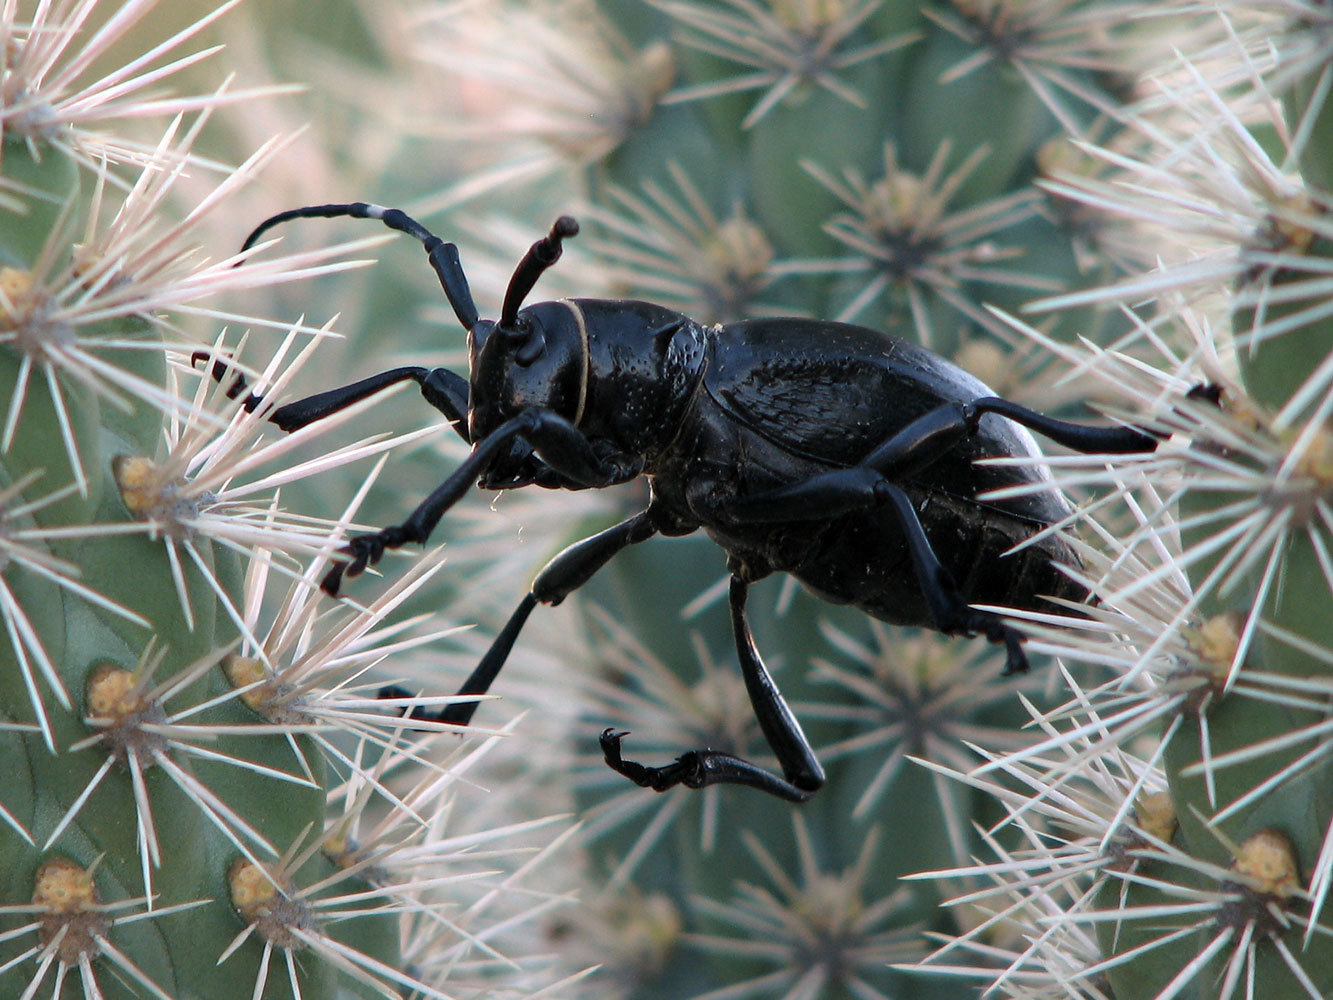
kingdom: Animalia
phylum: Arthropoda
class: Insecta
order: Coleoptera
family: Cerambycidae
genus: Moneilema
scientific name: Moneilema gigas
